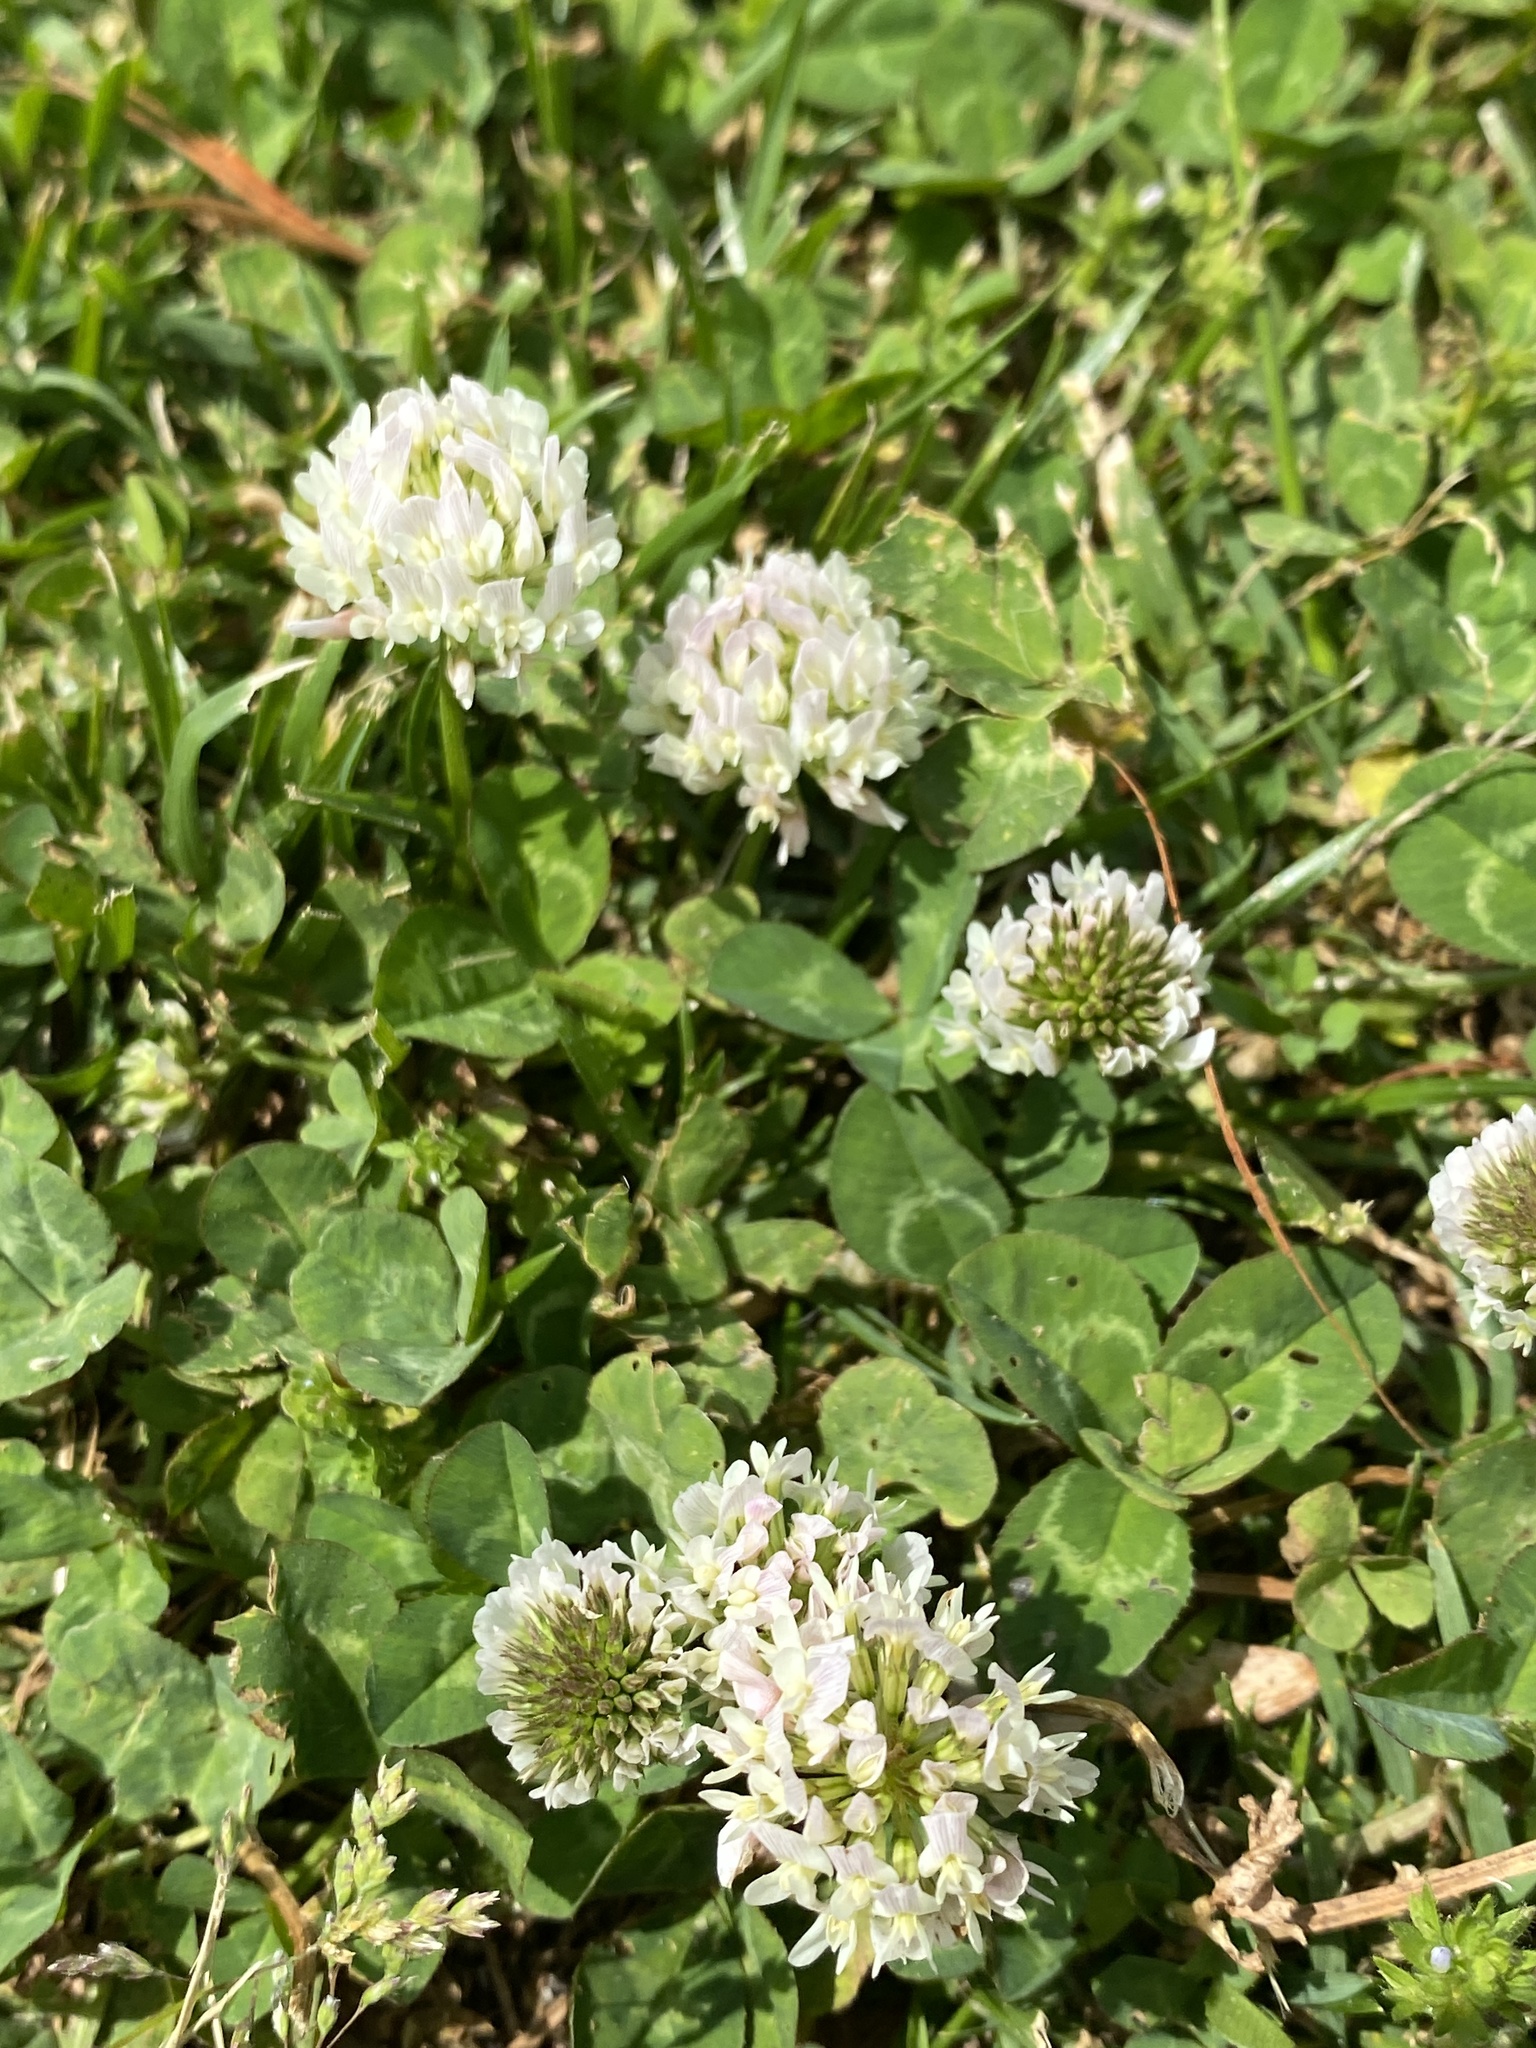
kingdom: Plantae
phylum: Tracheophyta
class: Magnoliopsida
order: Fabales
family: Fabaceae
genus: Trifolium
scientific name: Trifolium repens
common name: White clover
